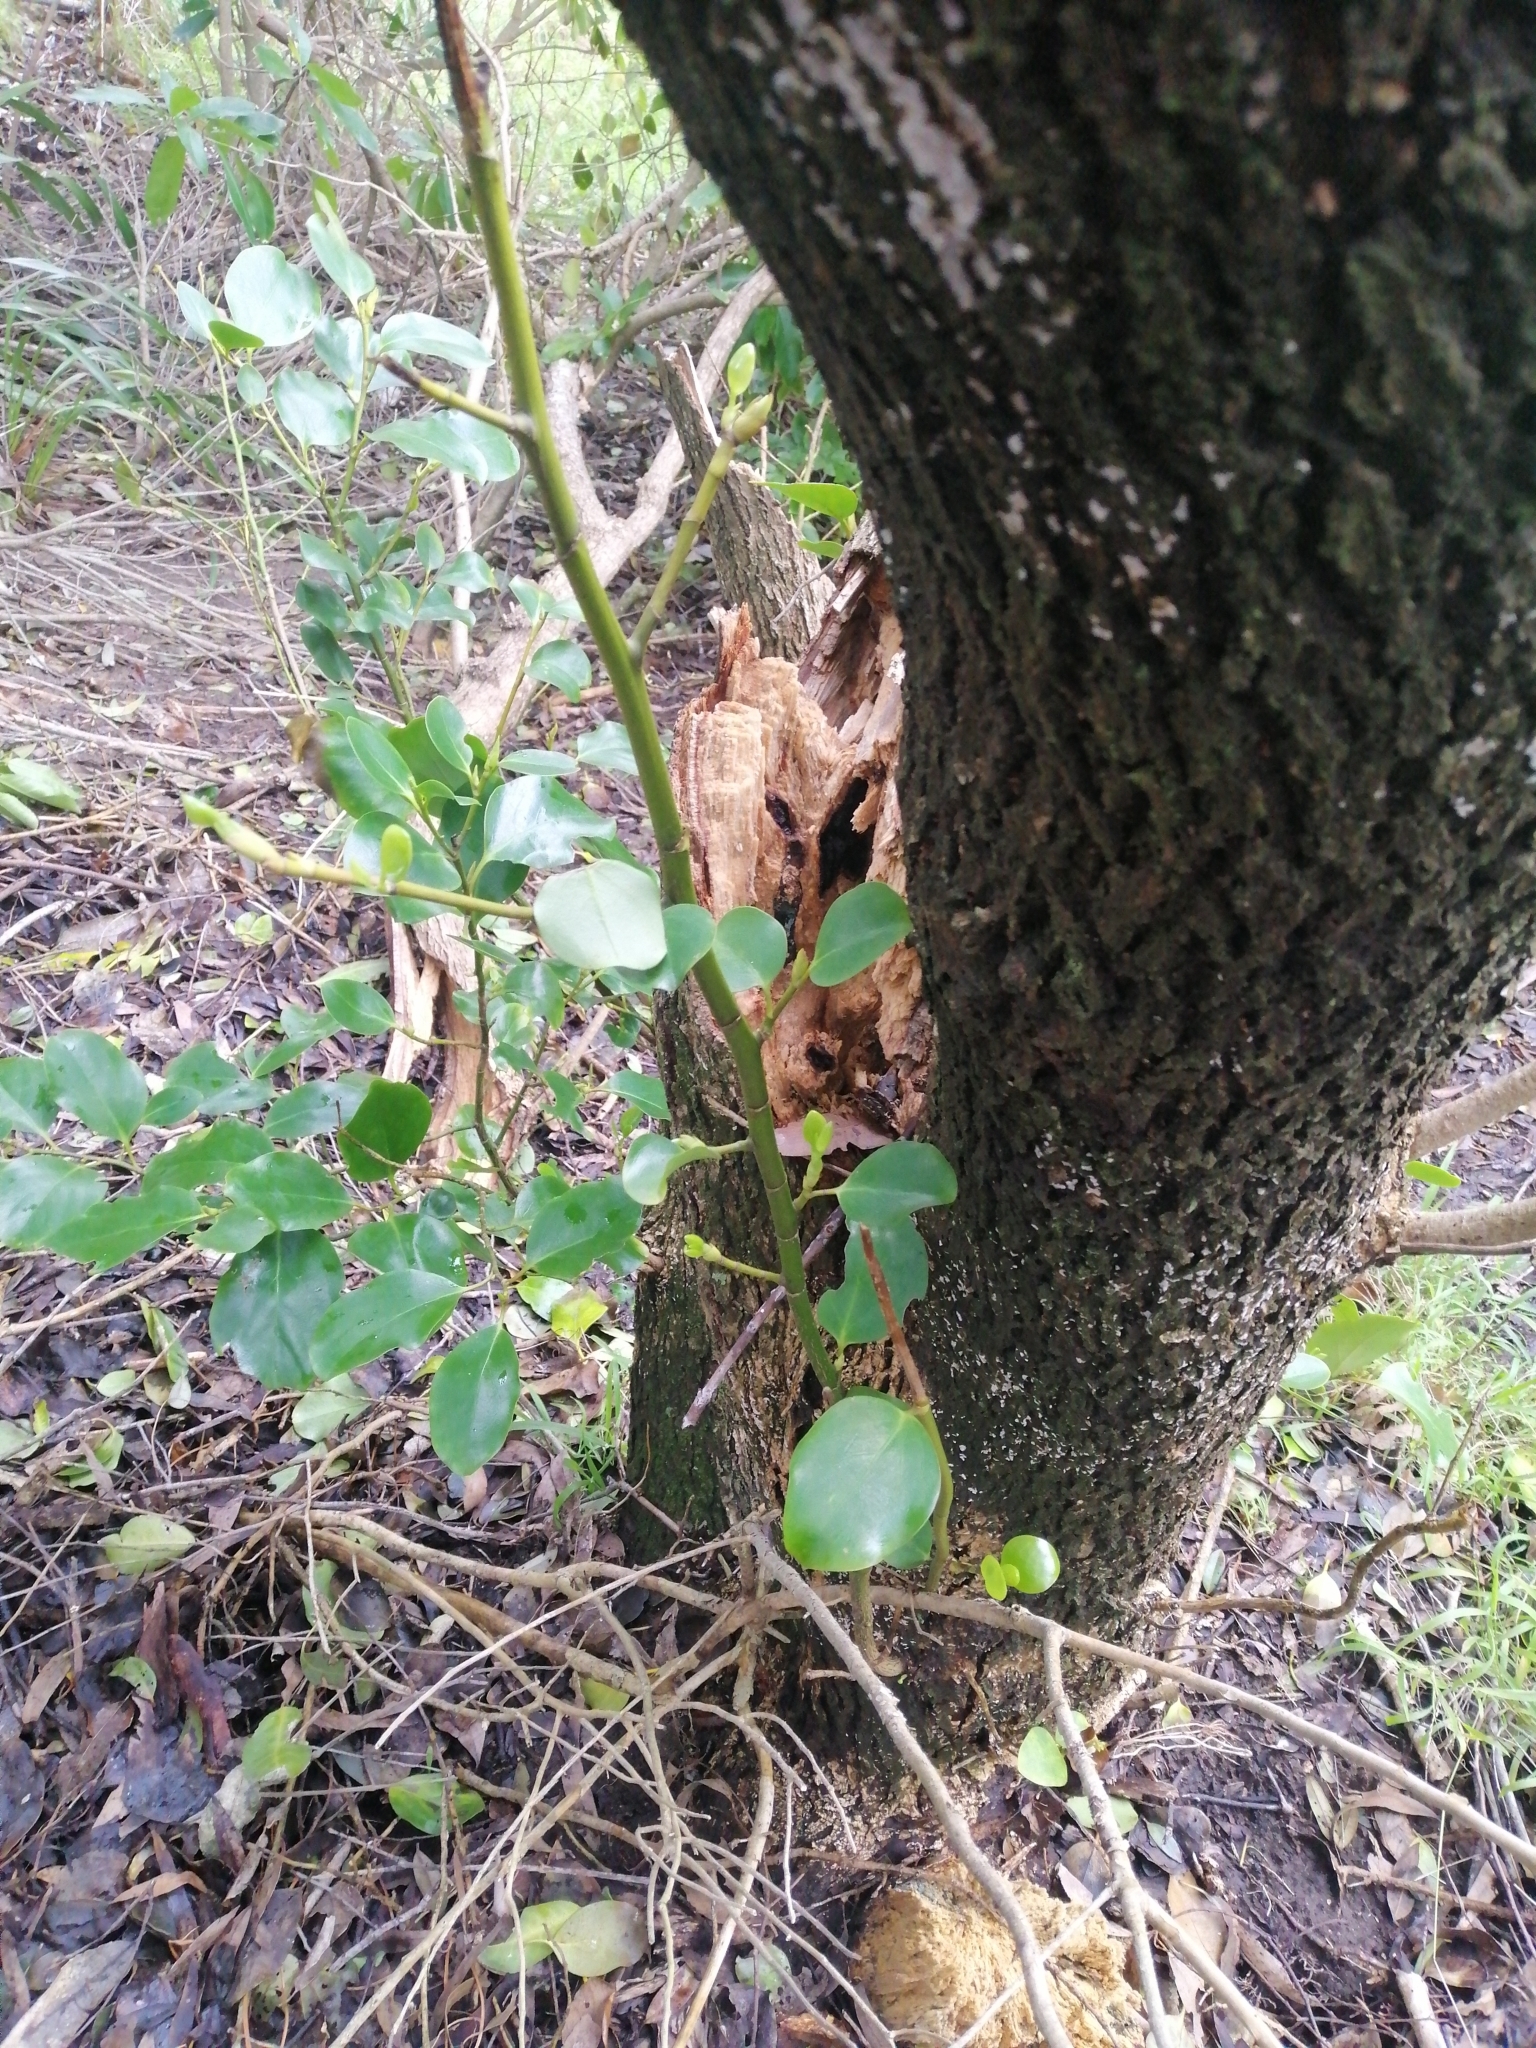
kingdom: Plantae
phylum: Tracheophyta
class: Magnoliopsida
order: Apiales
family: Griseliniaceae
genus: Griselinia
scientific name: Griselinia littoralis
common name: New zealand broadleaf
